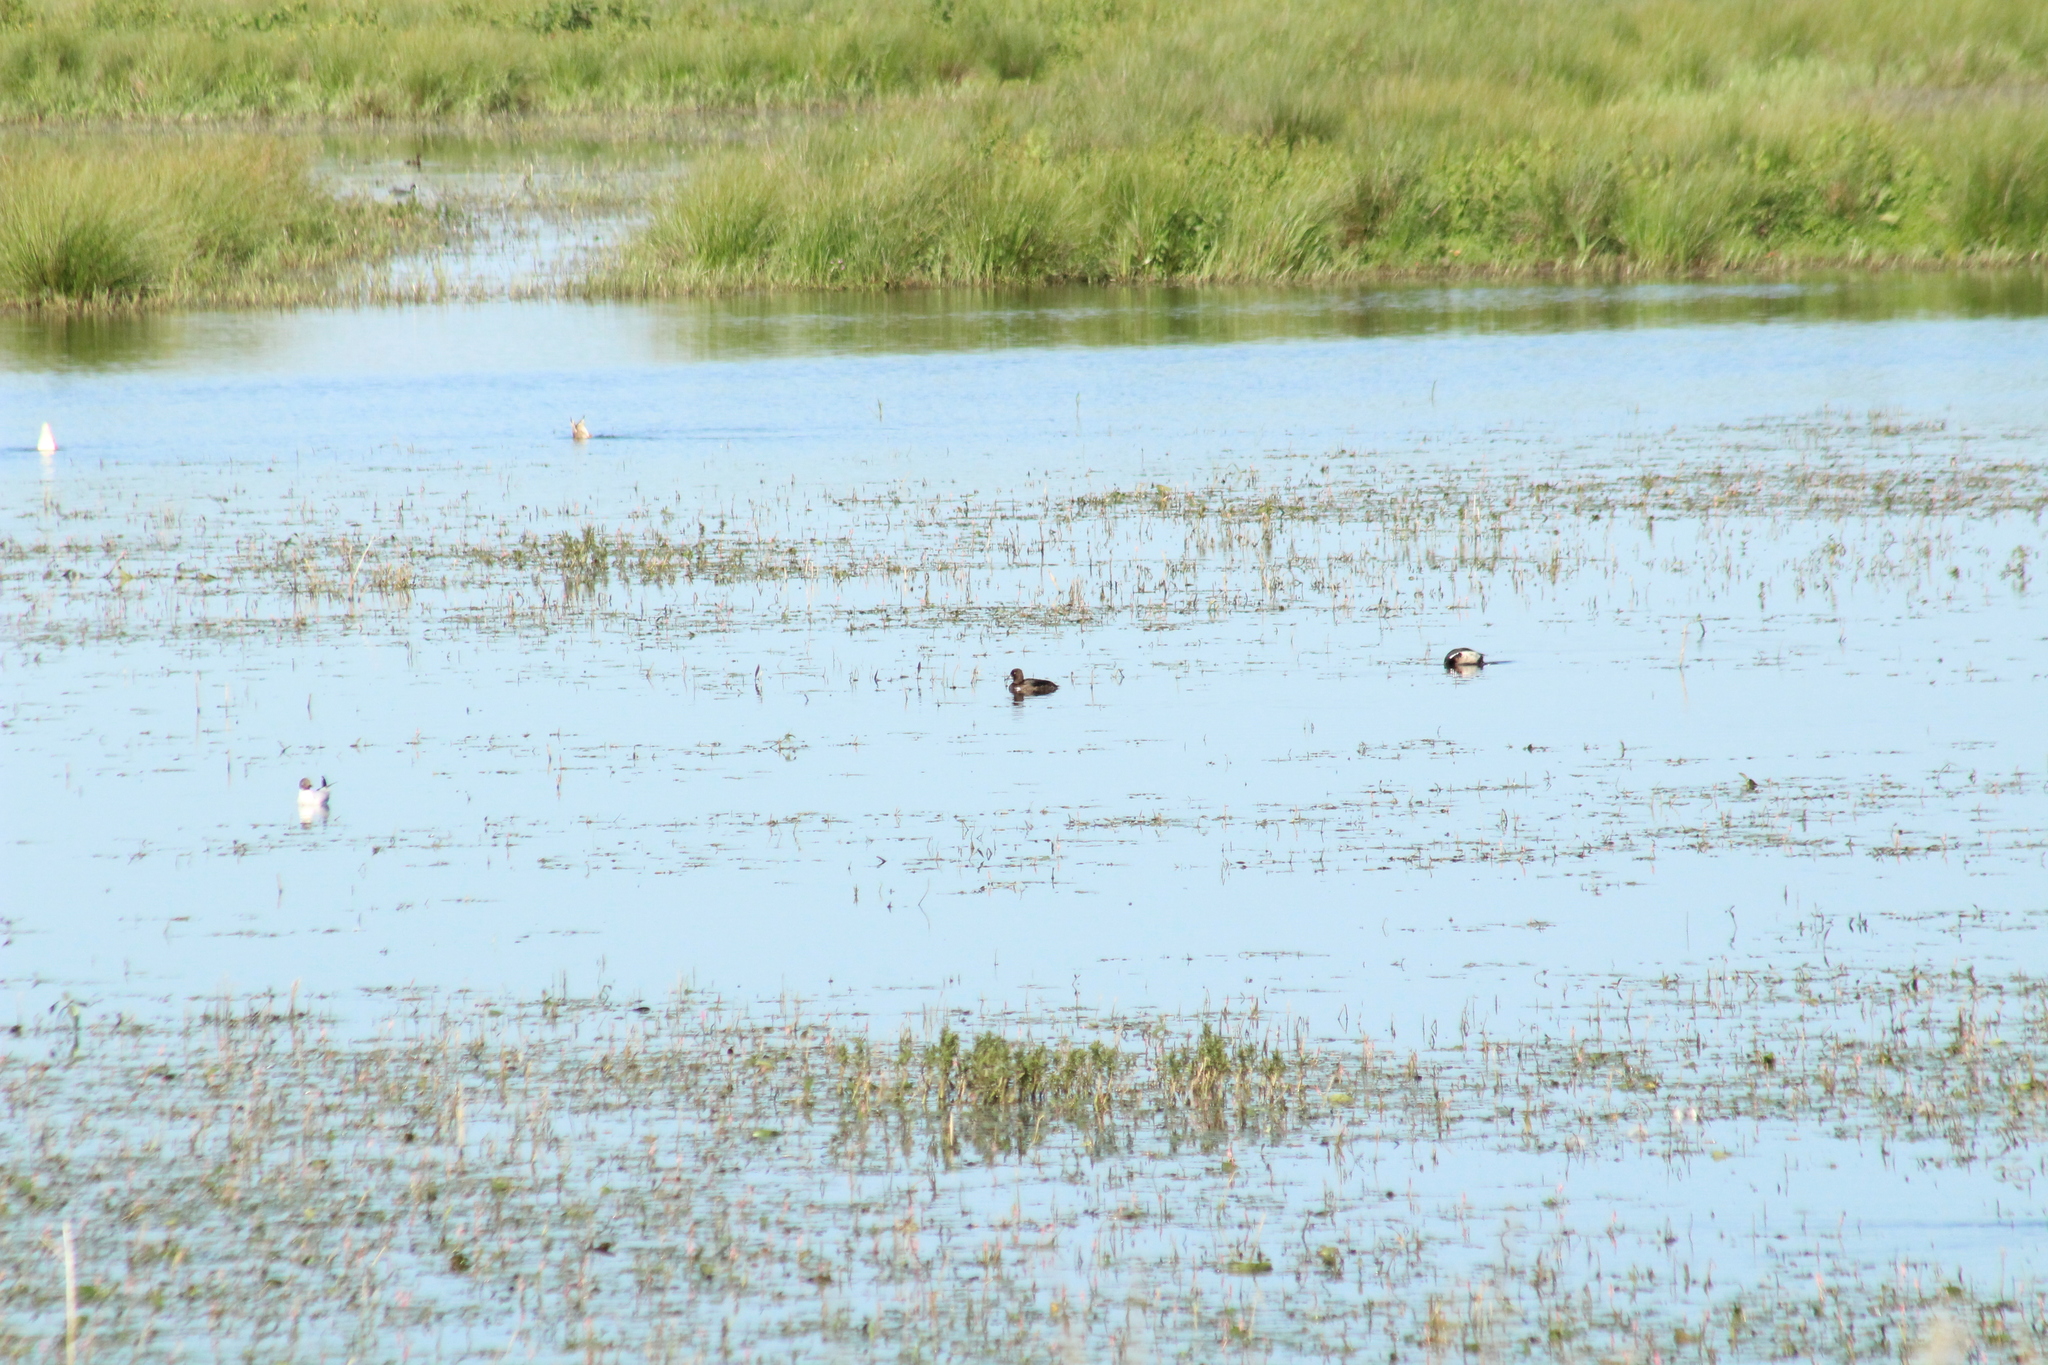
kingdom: Animalia
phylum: Chordata
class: Aves
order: Anseriformes
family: Anatidae
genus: Aythya
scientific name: Aythya fuligula
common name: Tufted duck
